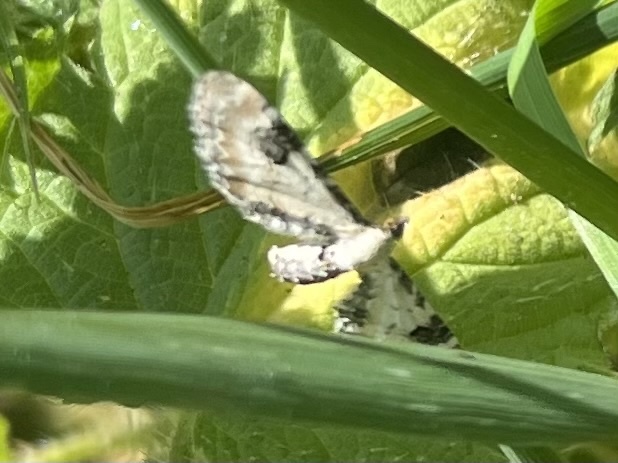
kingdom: Animalia
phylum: Arthropoda
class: Insecta
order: Lepidoptera
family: Geometridae
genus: Eupithecia
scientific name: Eupithecia centaureata
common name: Lime-speck pug
